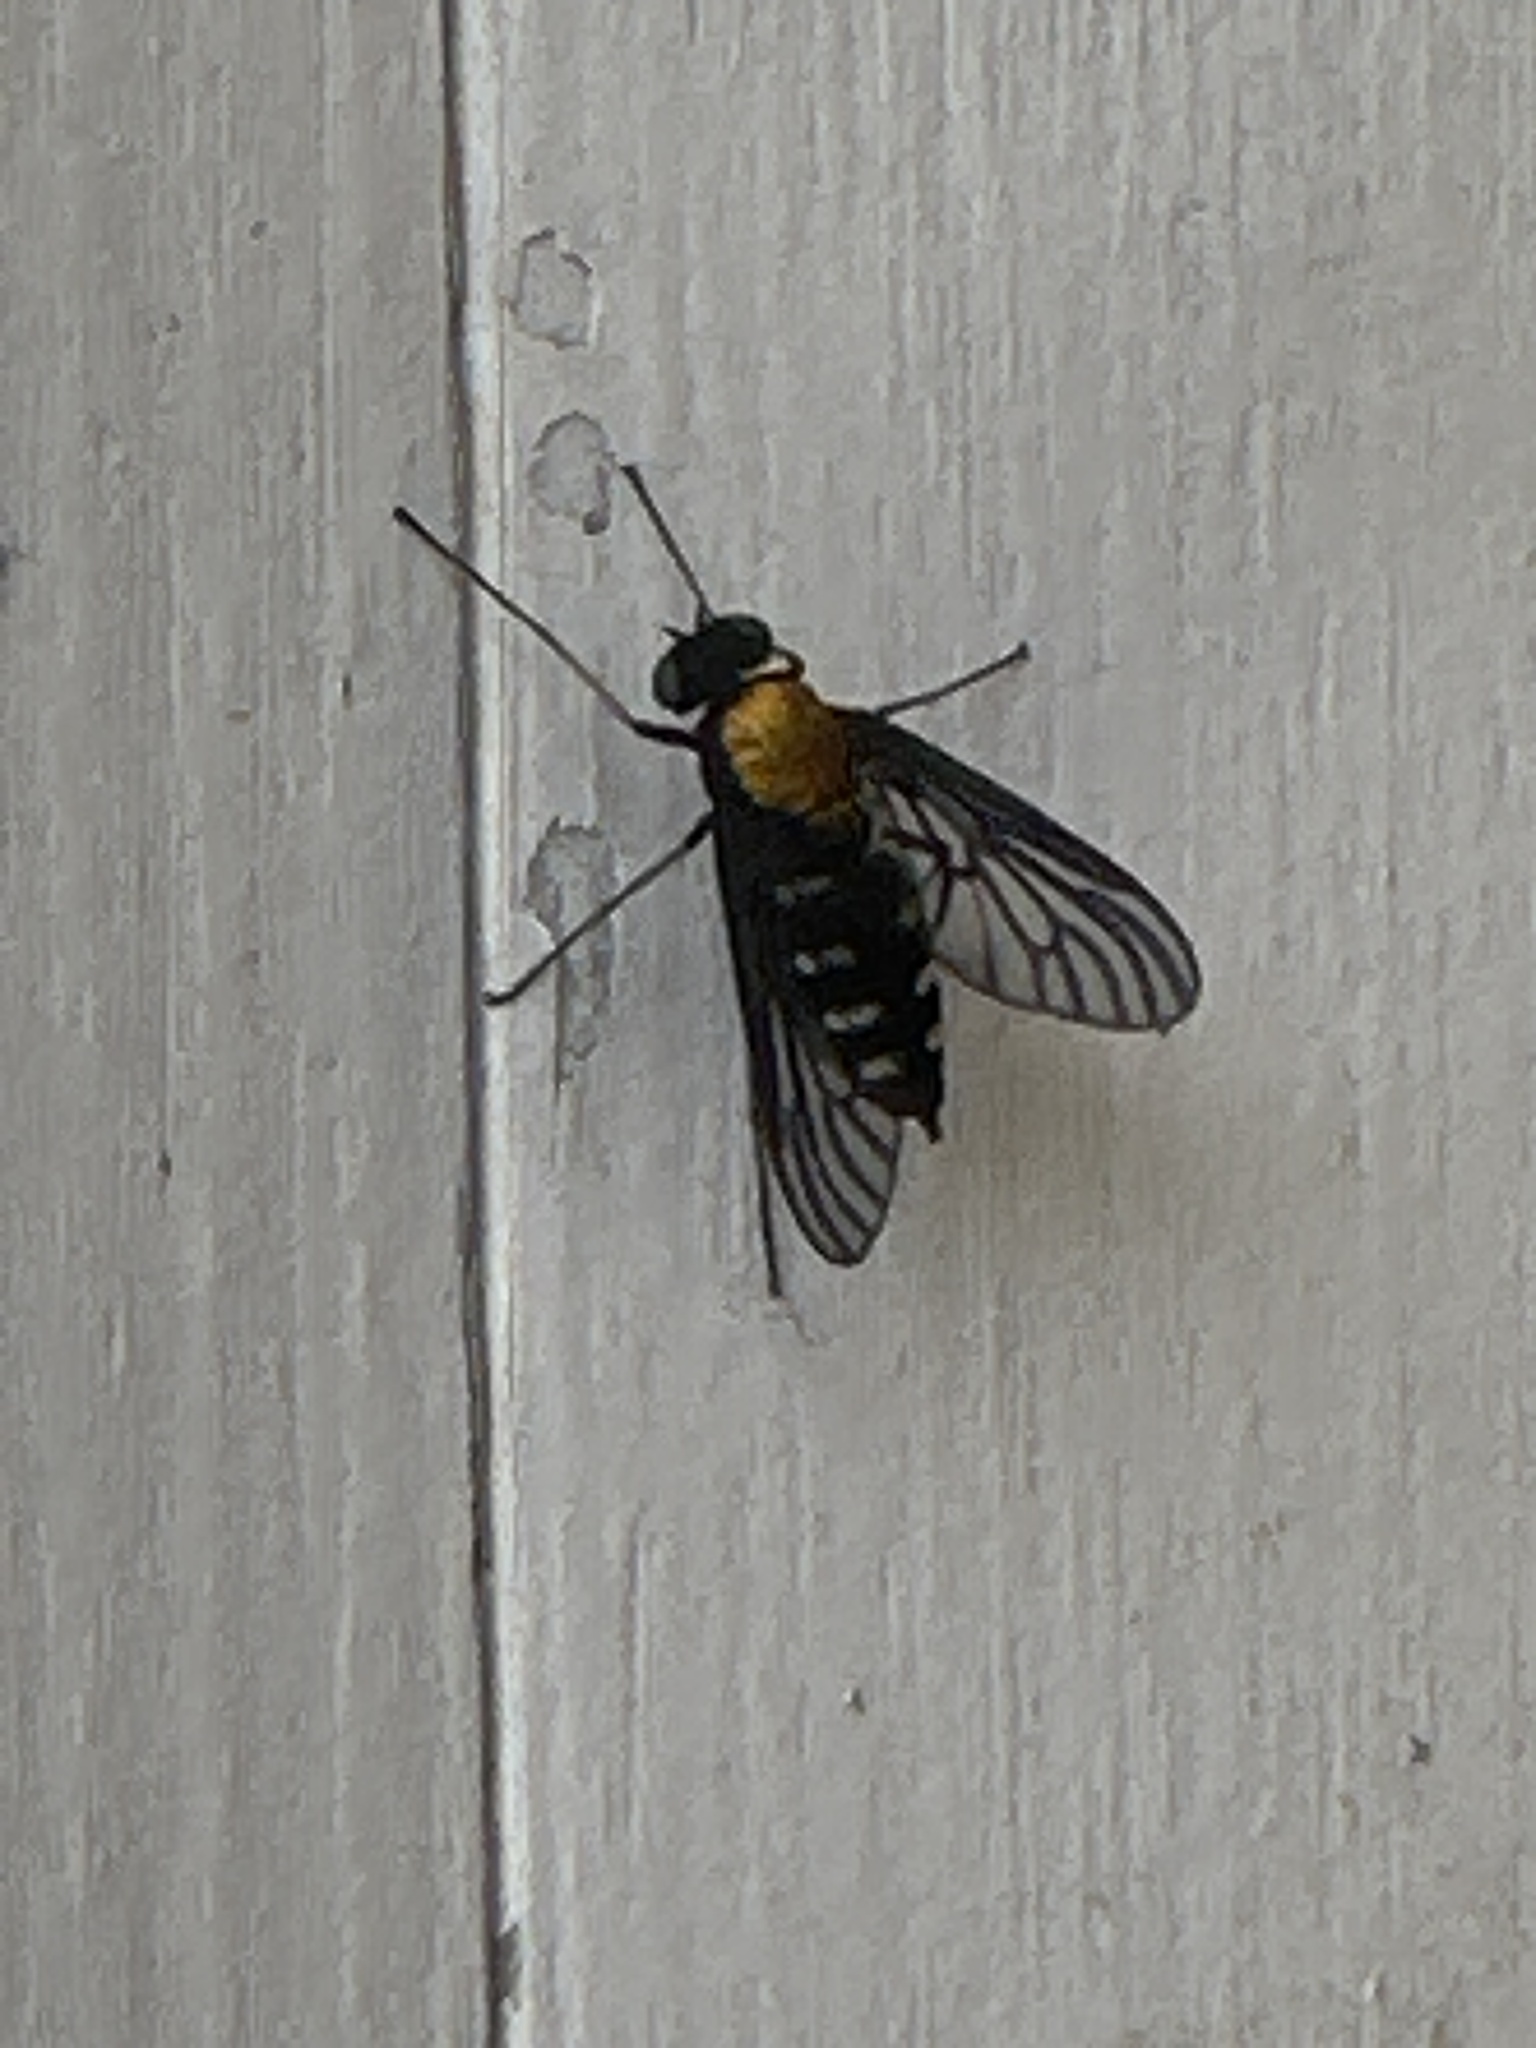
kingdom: Animalia
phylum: Arthropoda
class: Insecta
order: Diptera
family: Rhagionidae
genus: Chrysopilus
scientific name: Chrysopilus thoracicus
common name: Golden-backed snipe fly
